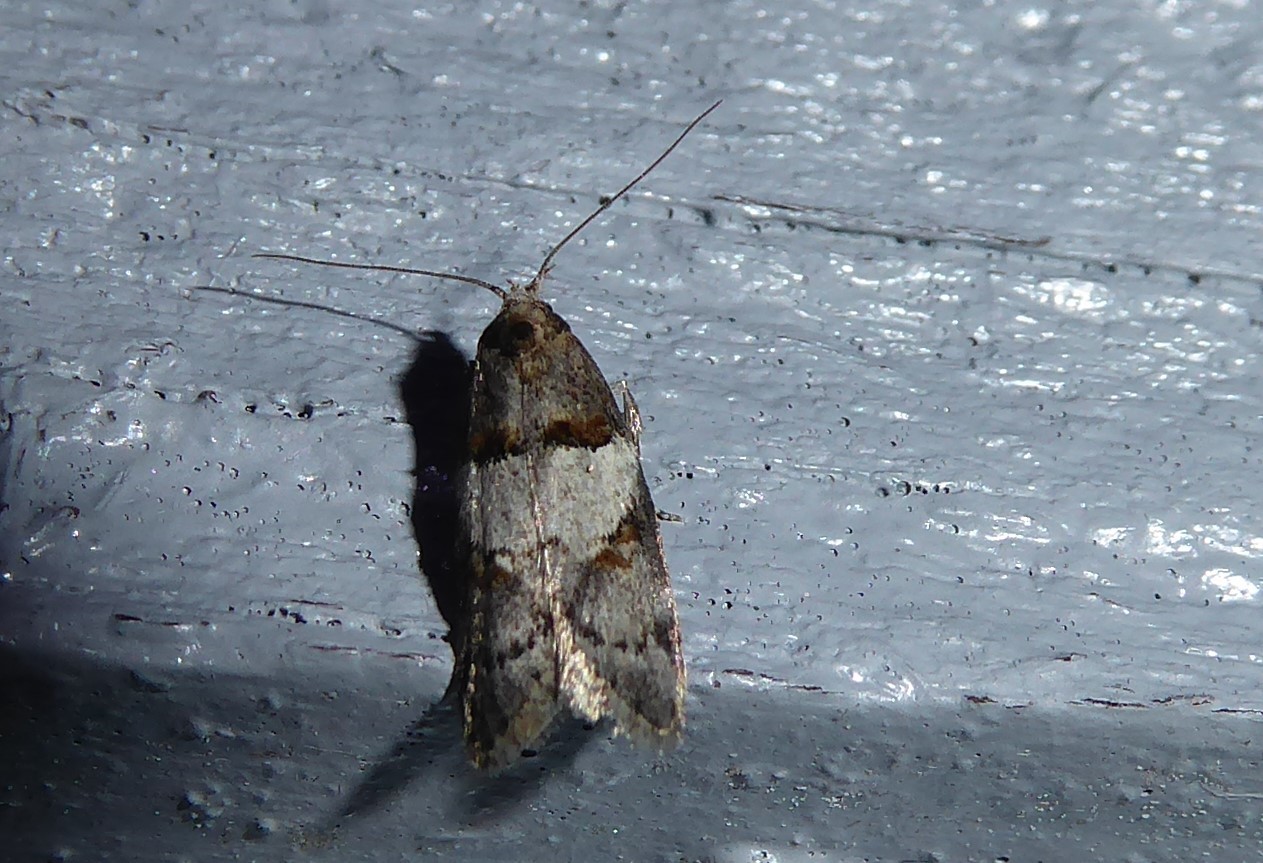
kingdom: Animalia
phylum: Arthropoda
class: Insecta
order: Lepidoptera
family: Oecophoridae
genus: Trachypepla
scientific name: Trachypepla contritella
